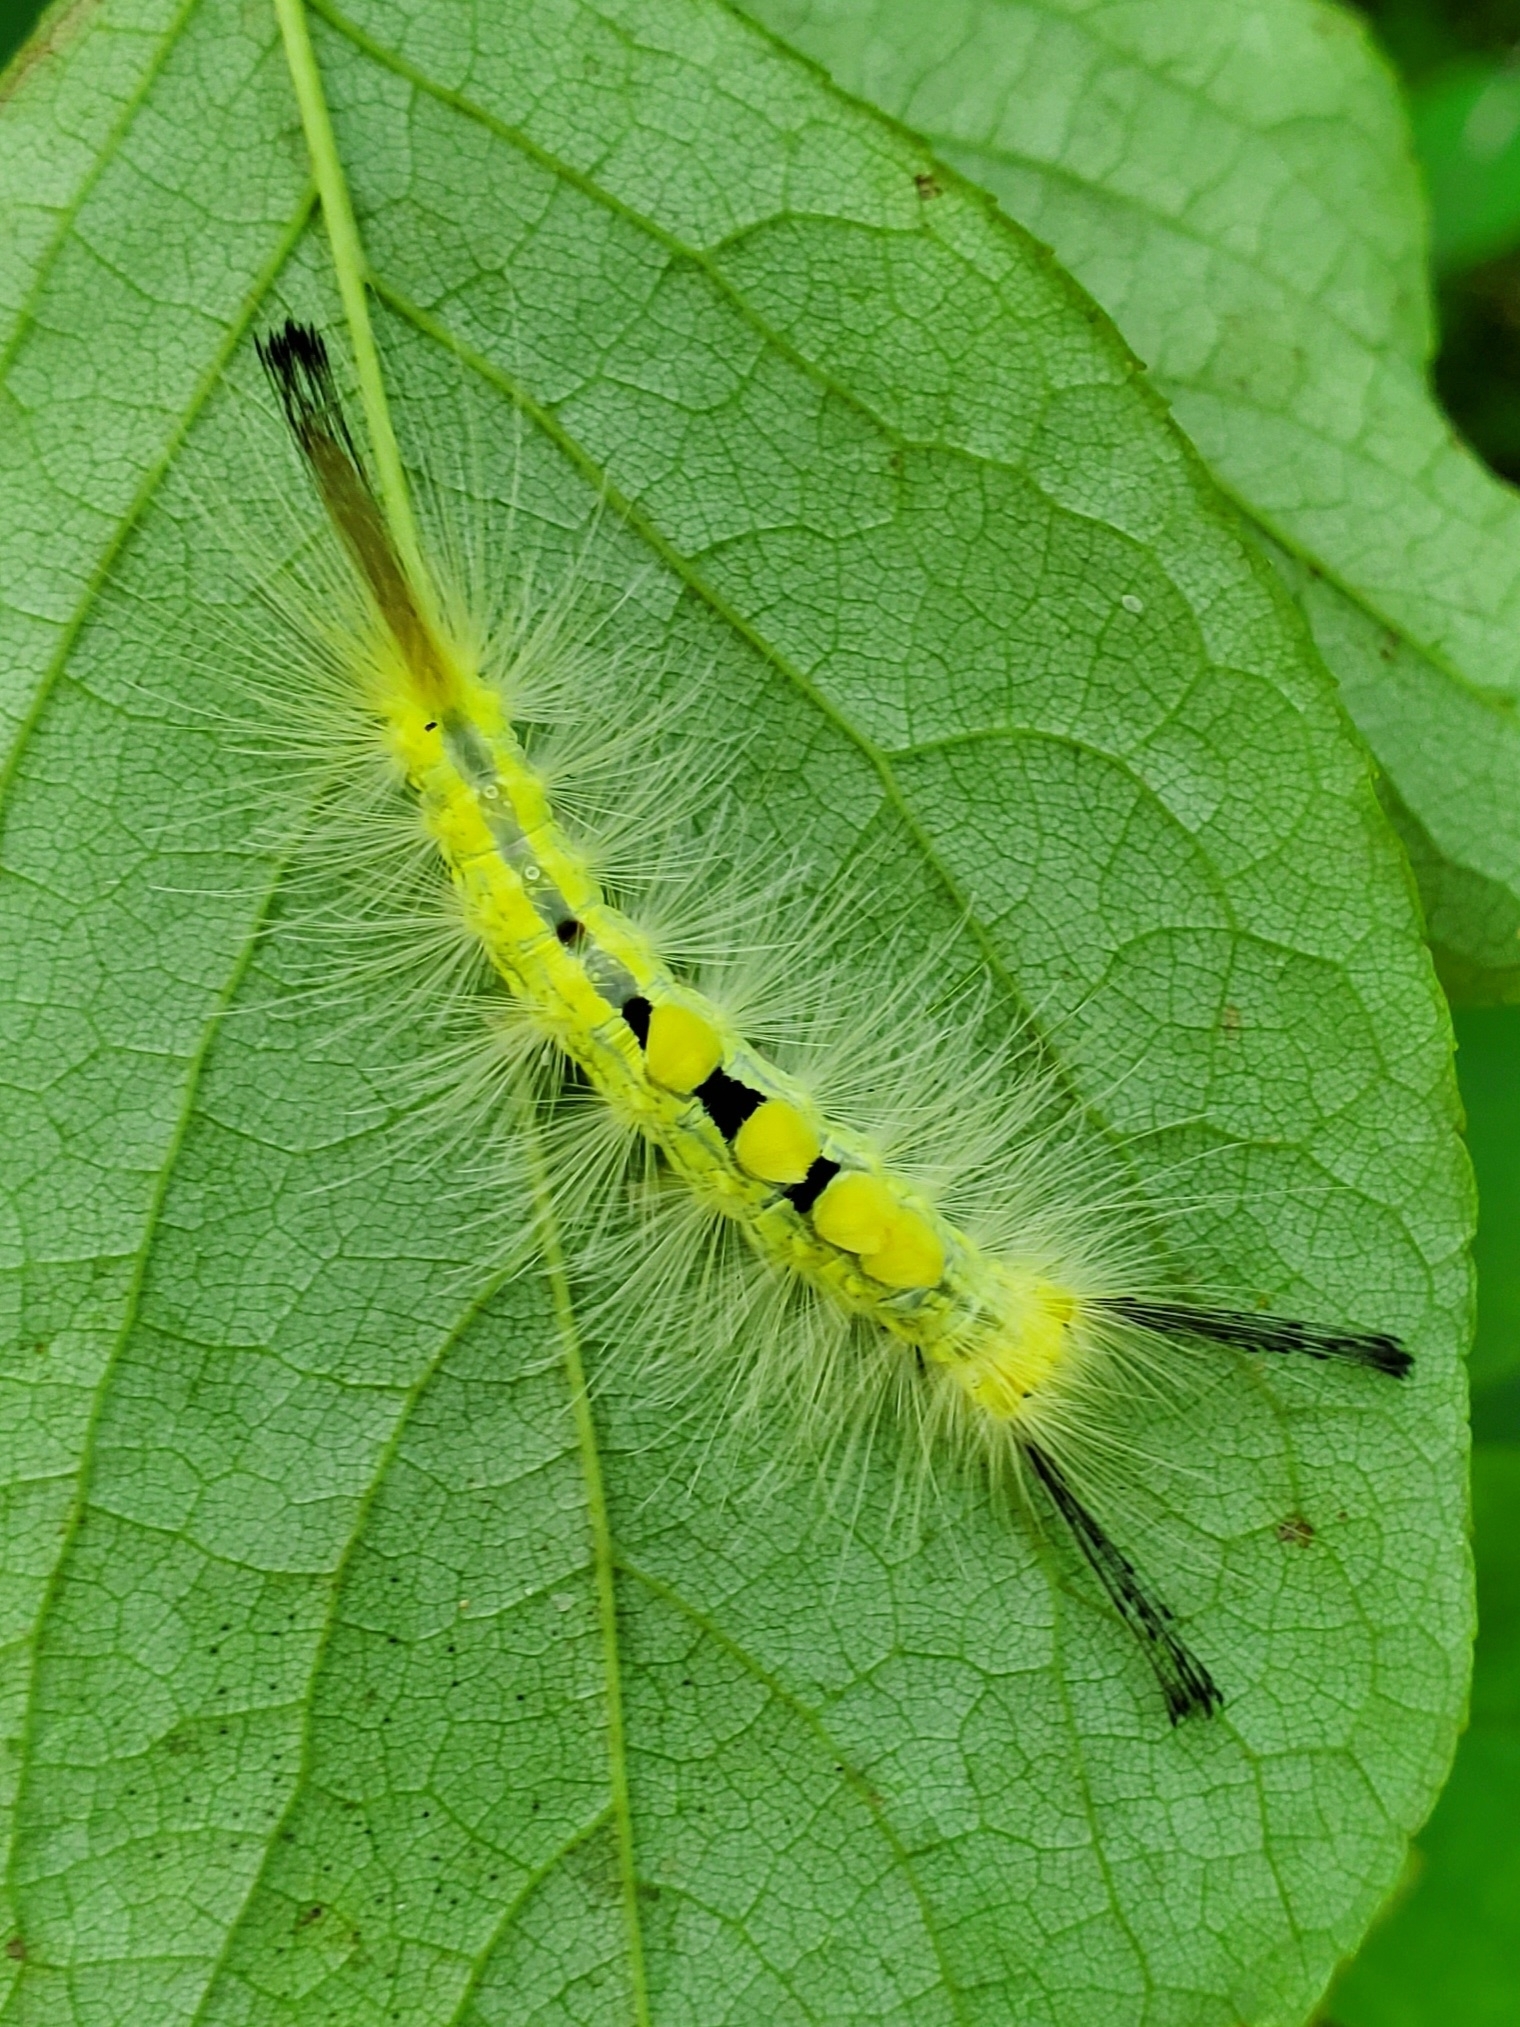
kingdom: Animalia
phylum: Arthropoda
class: Insecta
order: Lepidoptera
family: Erebidae
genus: Orgyia
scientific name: Orgyia definita
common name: Definite tussock moth
